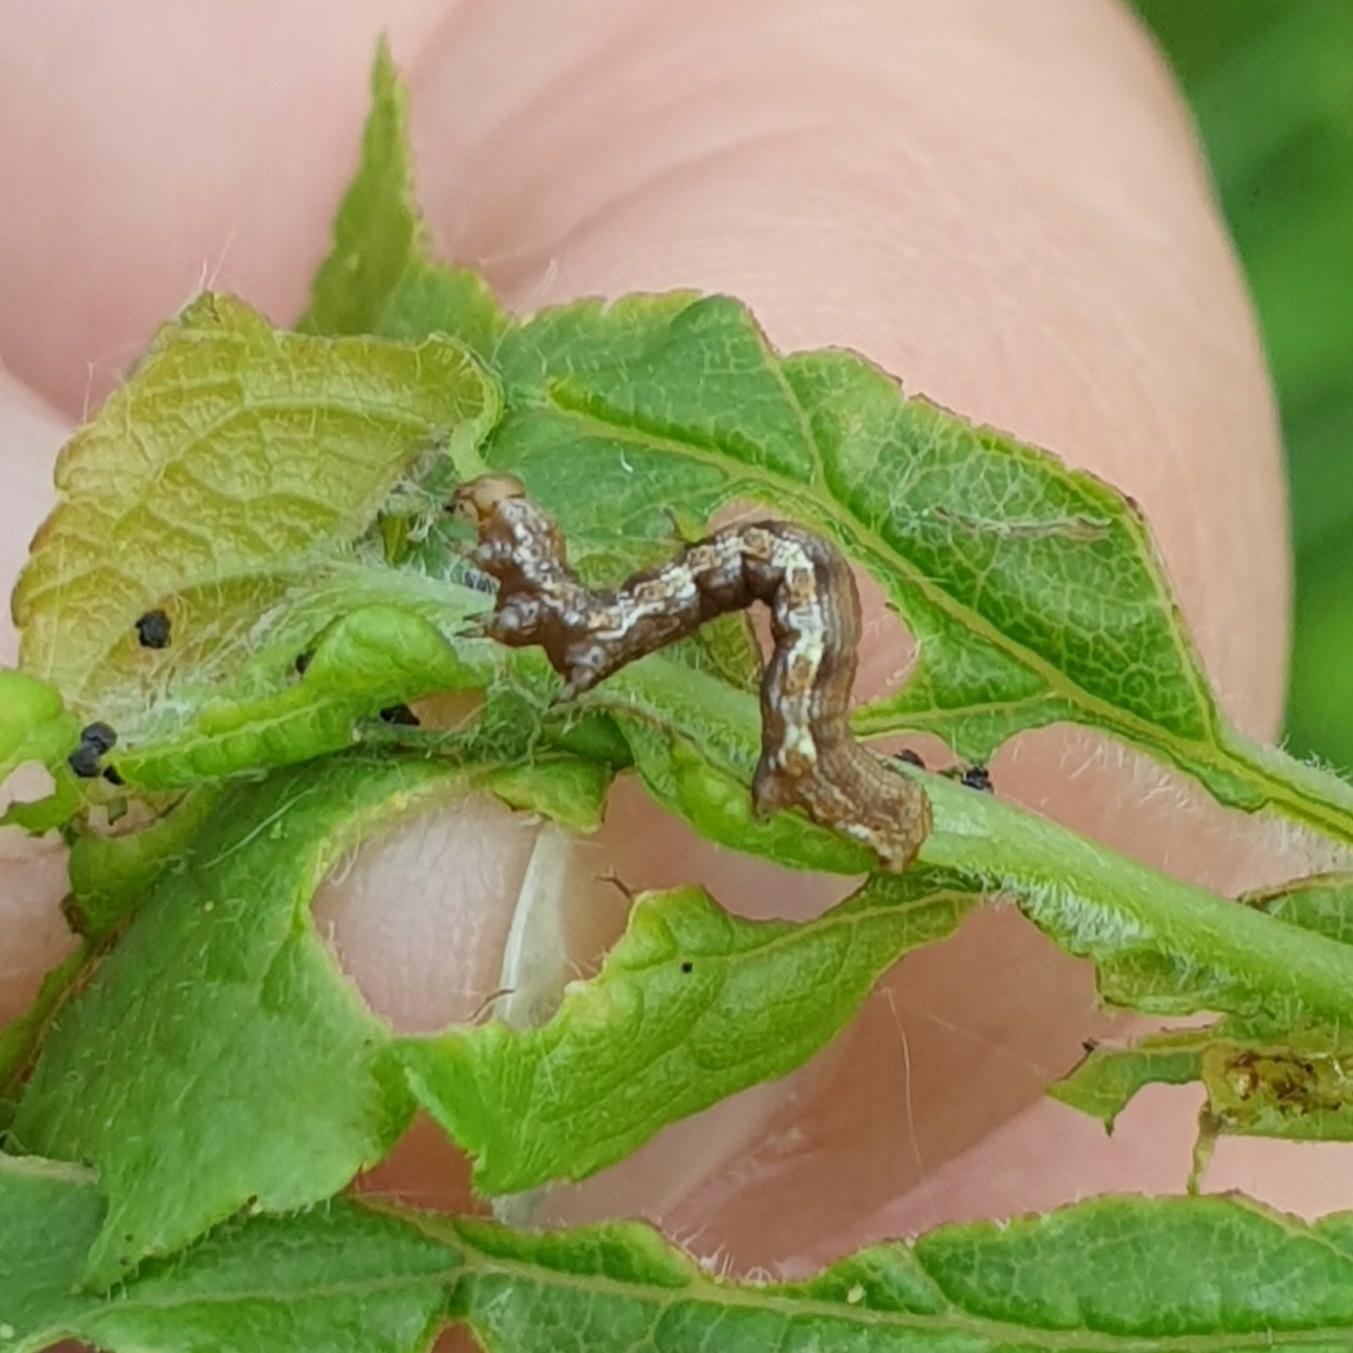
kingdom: Animalia
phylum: Arthropoda
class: Insecta
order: Lepidoptera
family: Geometridae
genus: Erannis
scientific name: Erannis defoliaria
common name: Mottled umber
